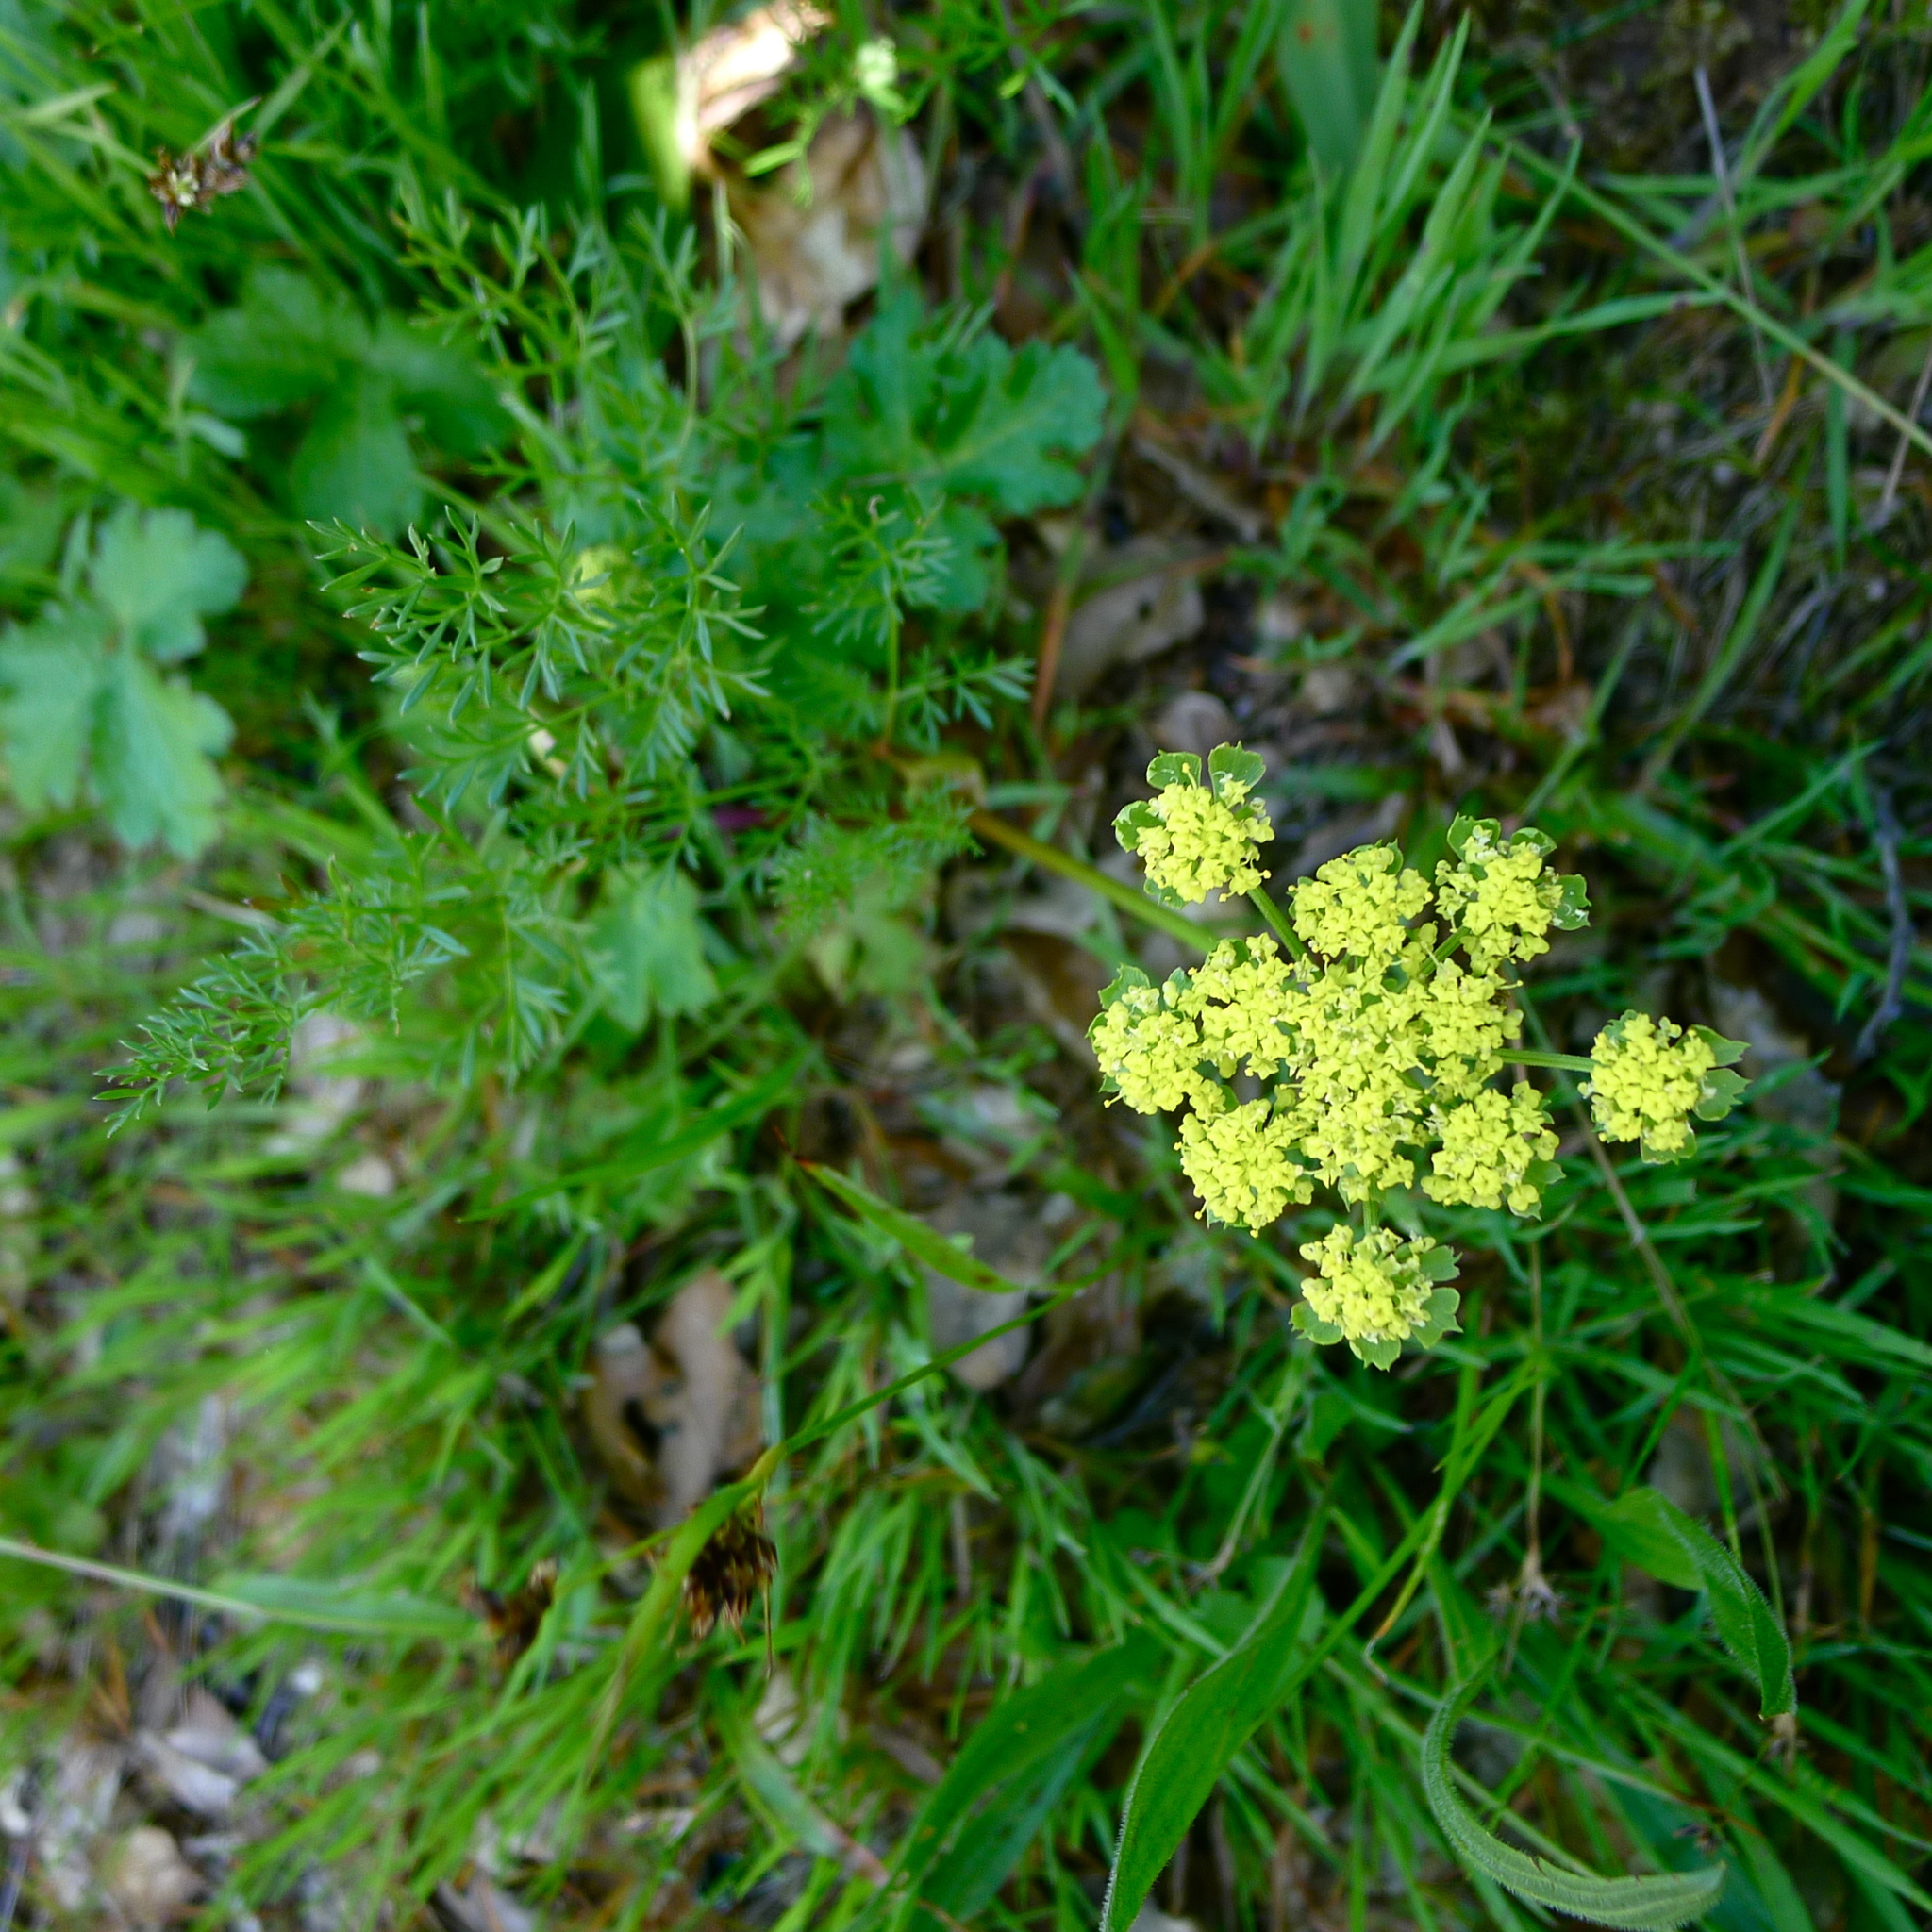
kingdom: Plantae
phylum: Tracheophyta
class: Magnoliopsida
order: Apiales
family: Apiaceae
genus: Lomatium
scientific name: Lomatium utriculatum
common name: Fine-leaf desert-parsley
